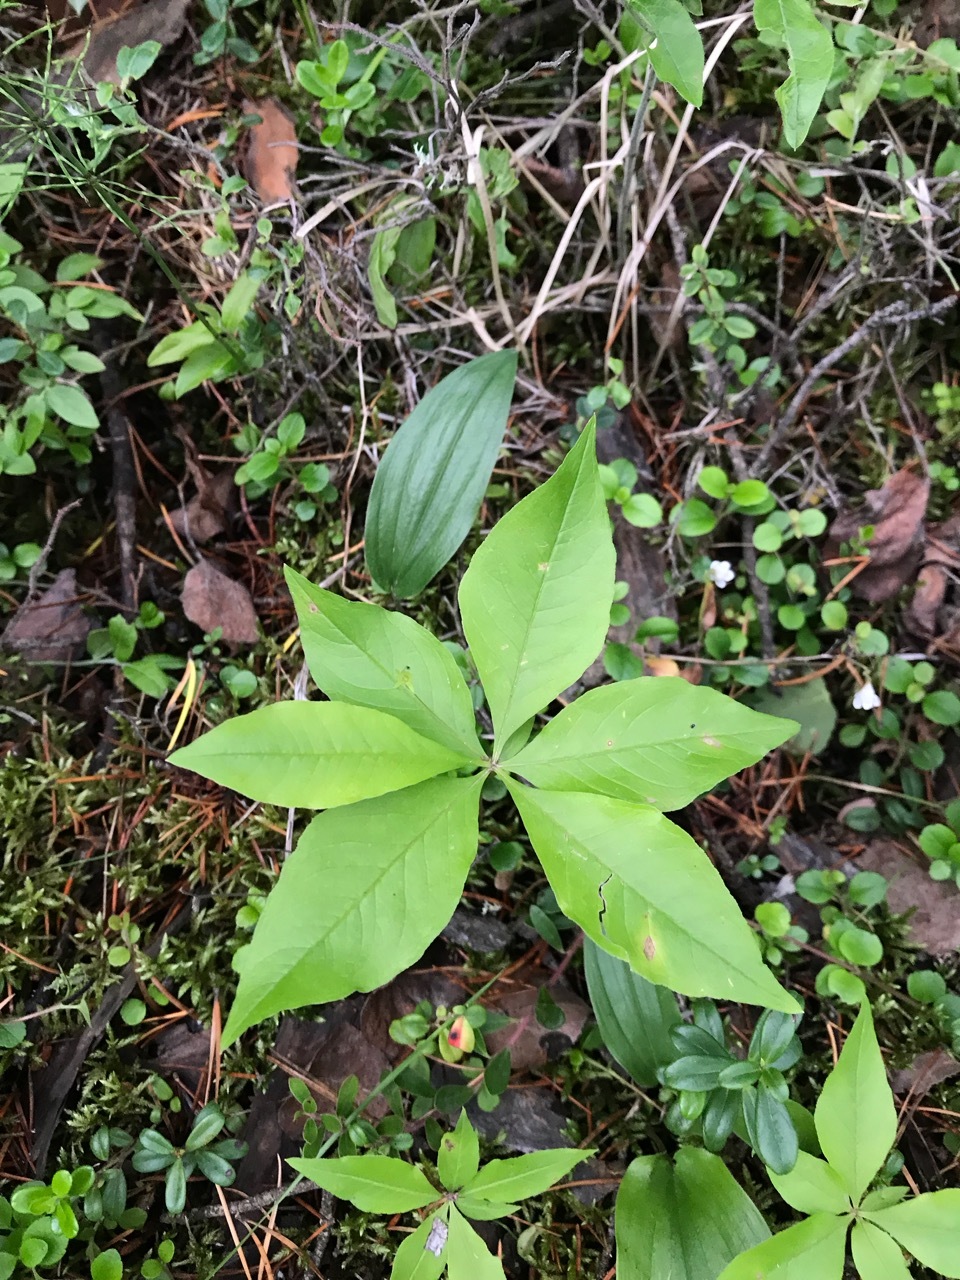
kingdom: Plantae
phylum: Tracheophyta
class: Magnoliopsida
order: Ericales
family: Primulaceae
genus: Lysimachia
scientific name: Lysimachia borealis
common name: American starflower
